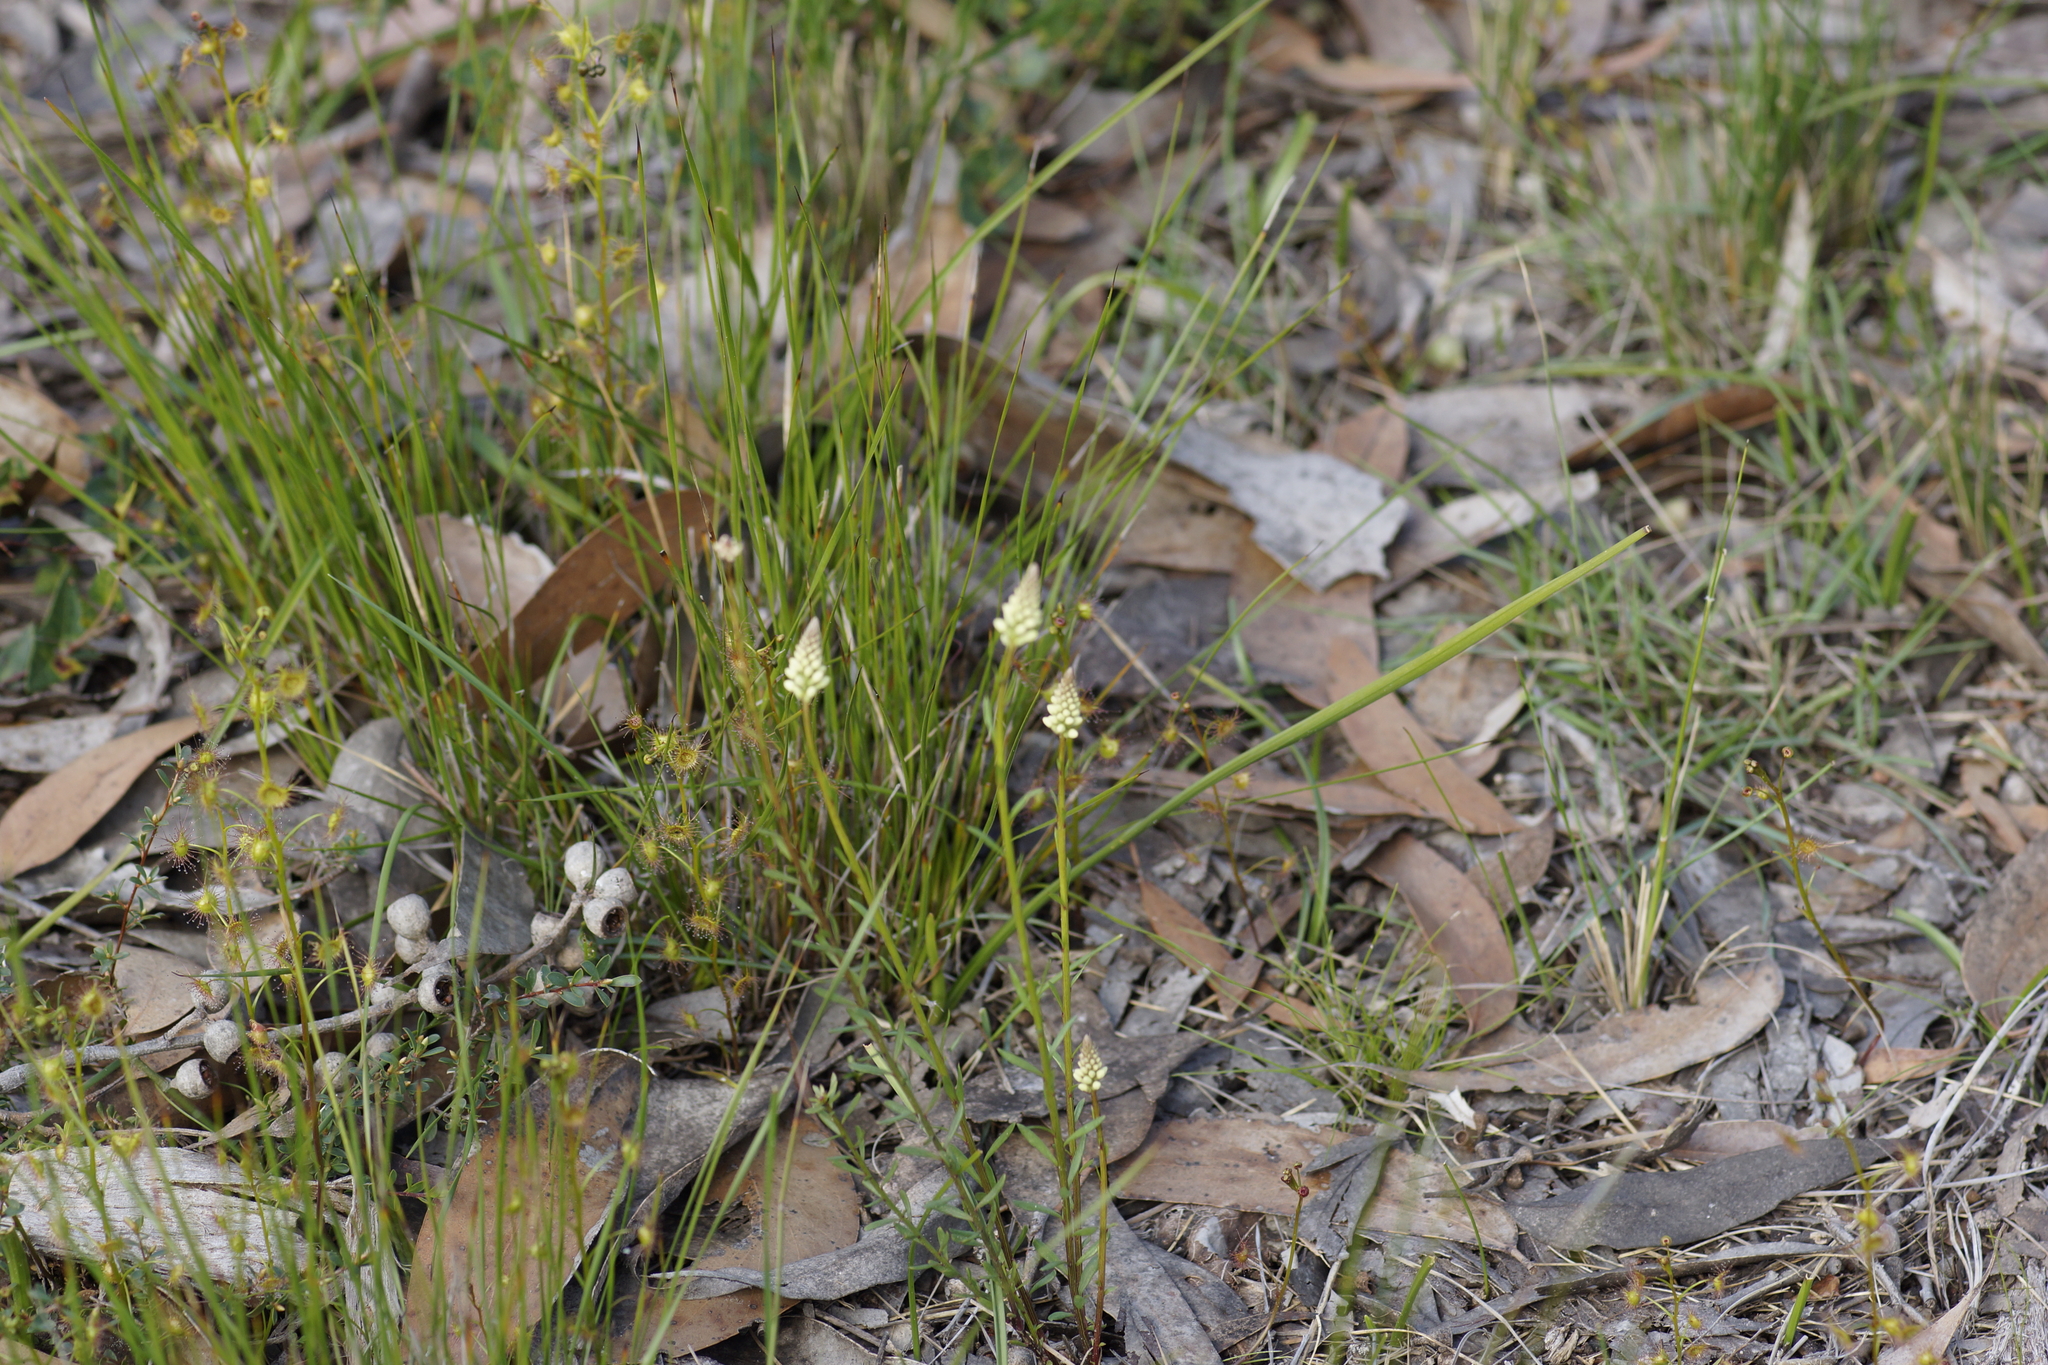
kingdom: Plantae
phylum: Tracheophyta
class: Magnoliopsida
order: Celastrales
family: Celastraceae
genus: Stackhousia
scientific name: Stackhousia monogyna
